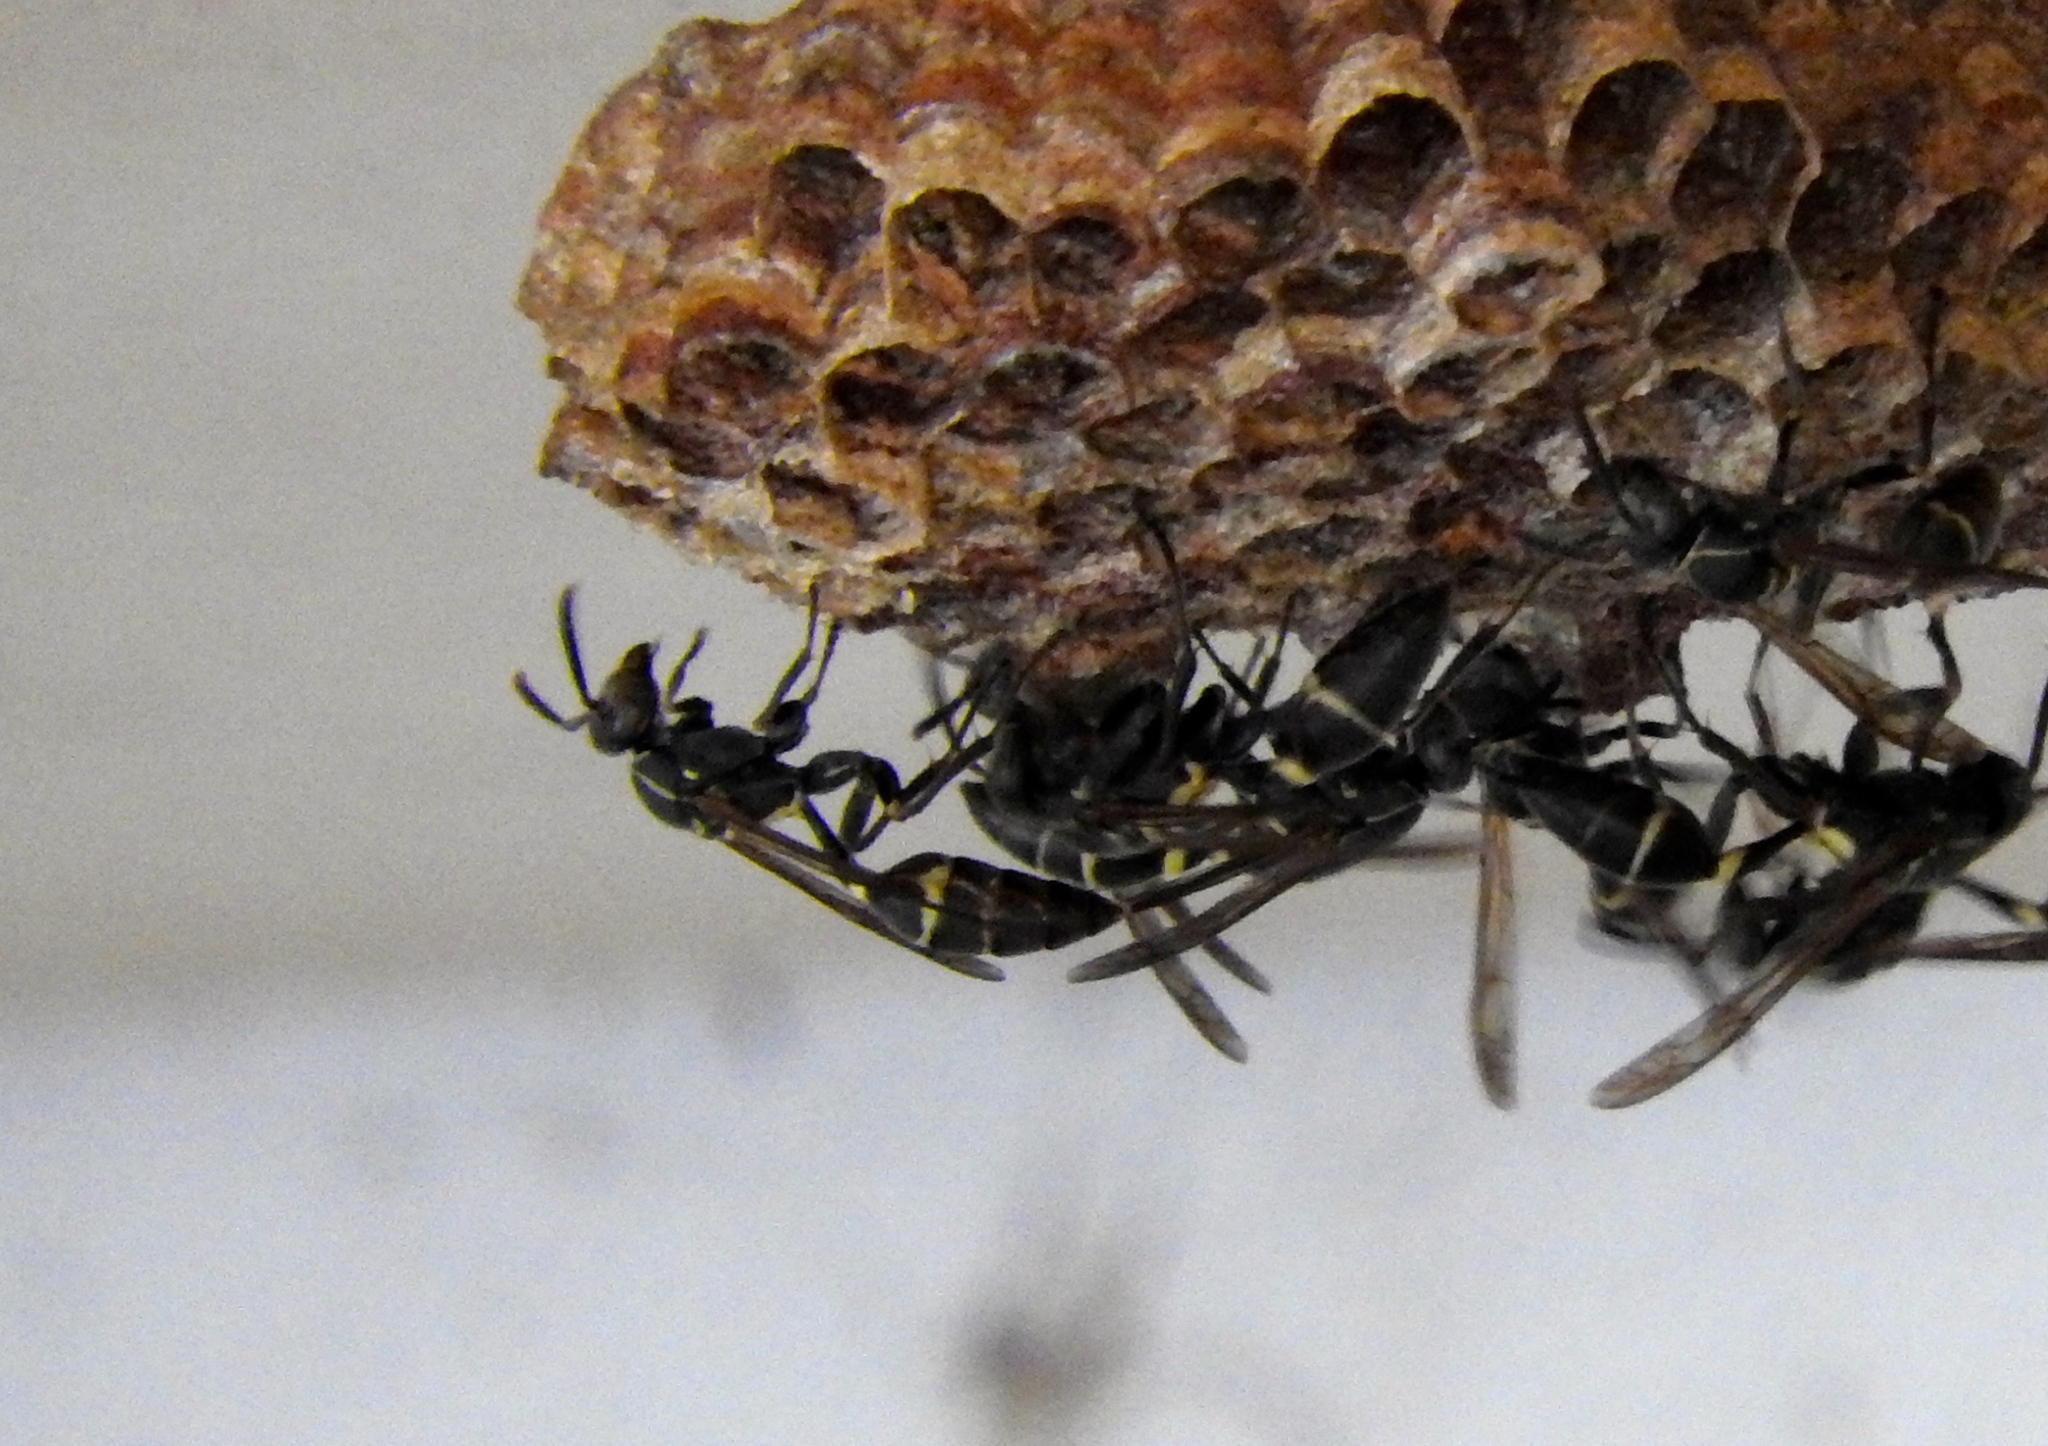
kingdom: Animalia
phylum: Arthropoda
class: Insecta
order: Hymenoptera
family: Vespidae
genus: Mischocyttarus
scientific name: Mischocyttarus
